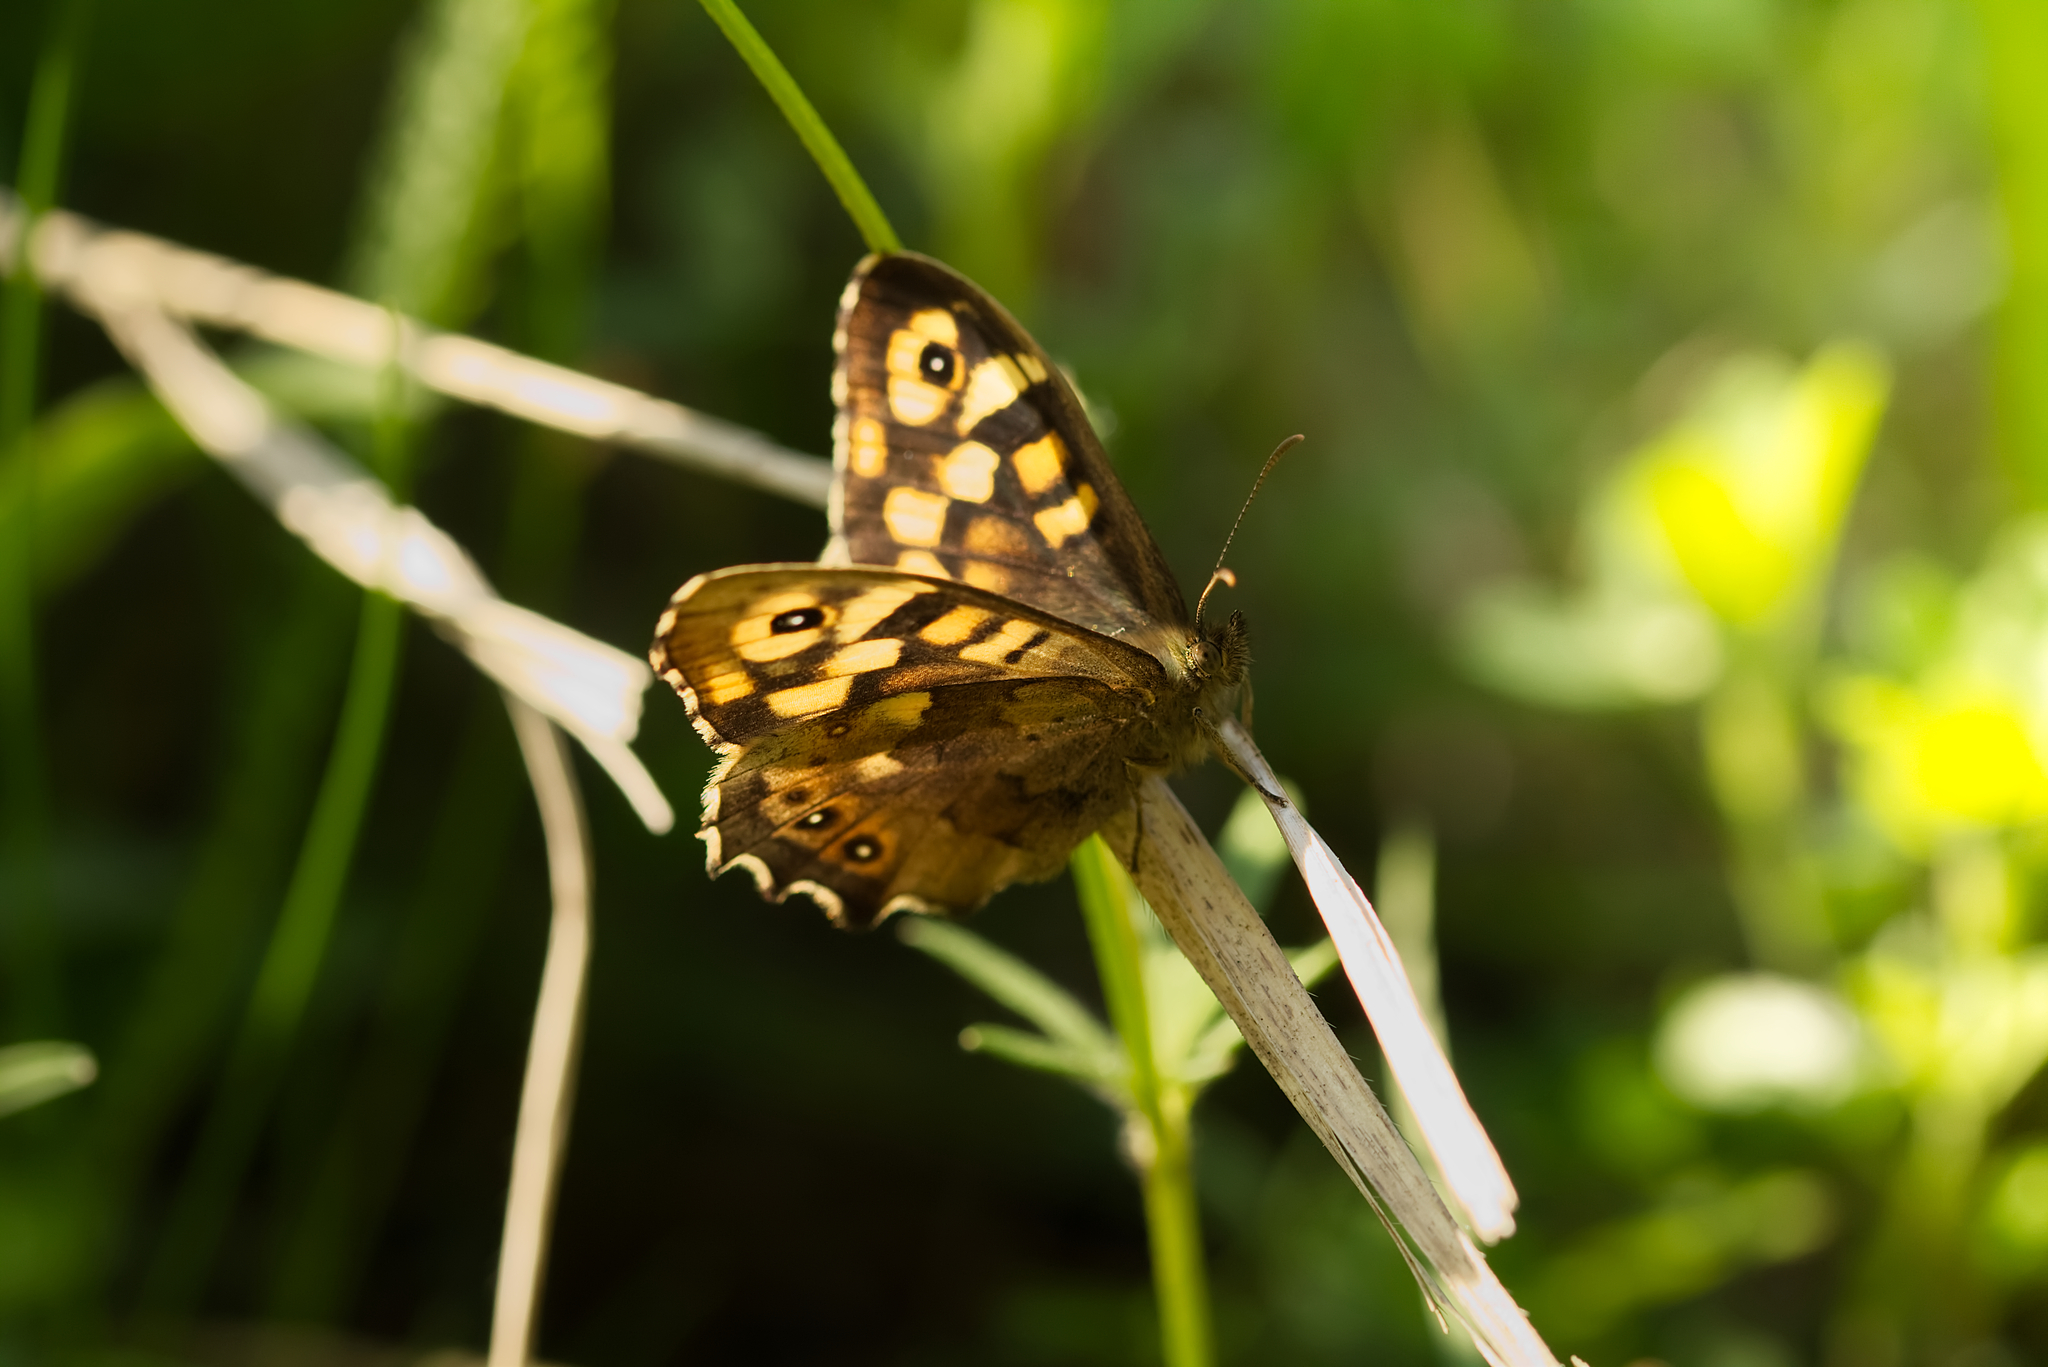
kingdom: Animalia
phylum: Arthropoda
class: Insecta
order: Lepidoptera
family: Nymphalidae
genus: Pararge
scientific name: Pararge aegeria
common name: Speckled wood
